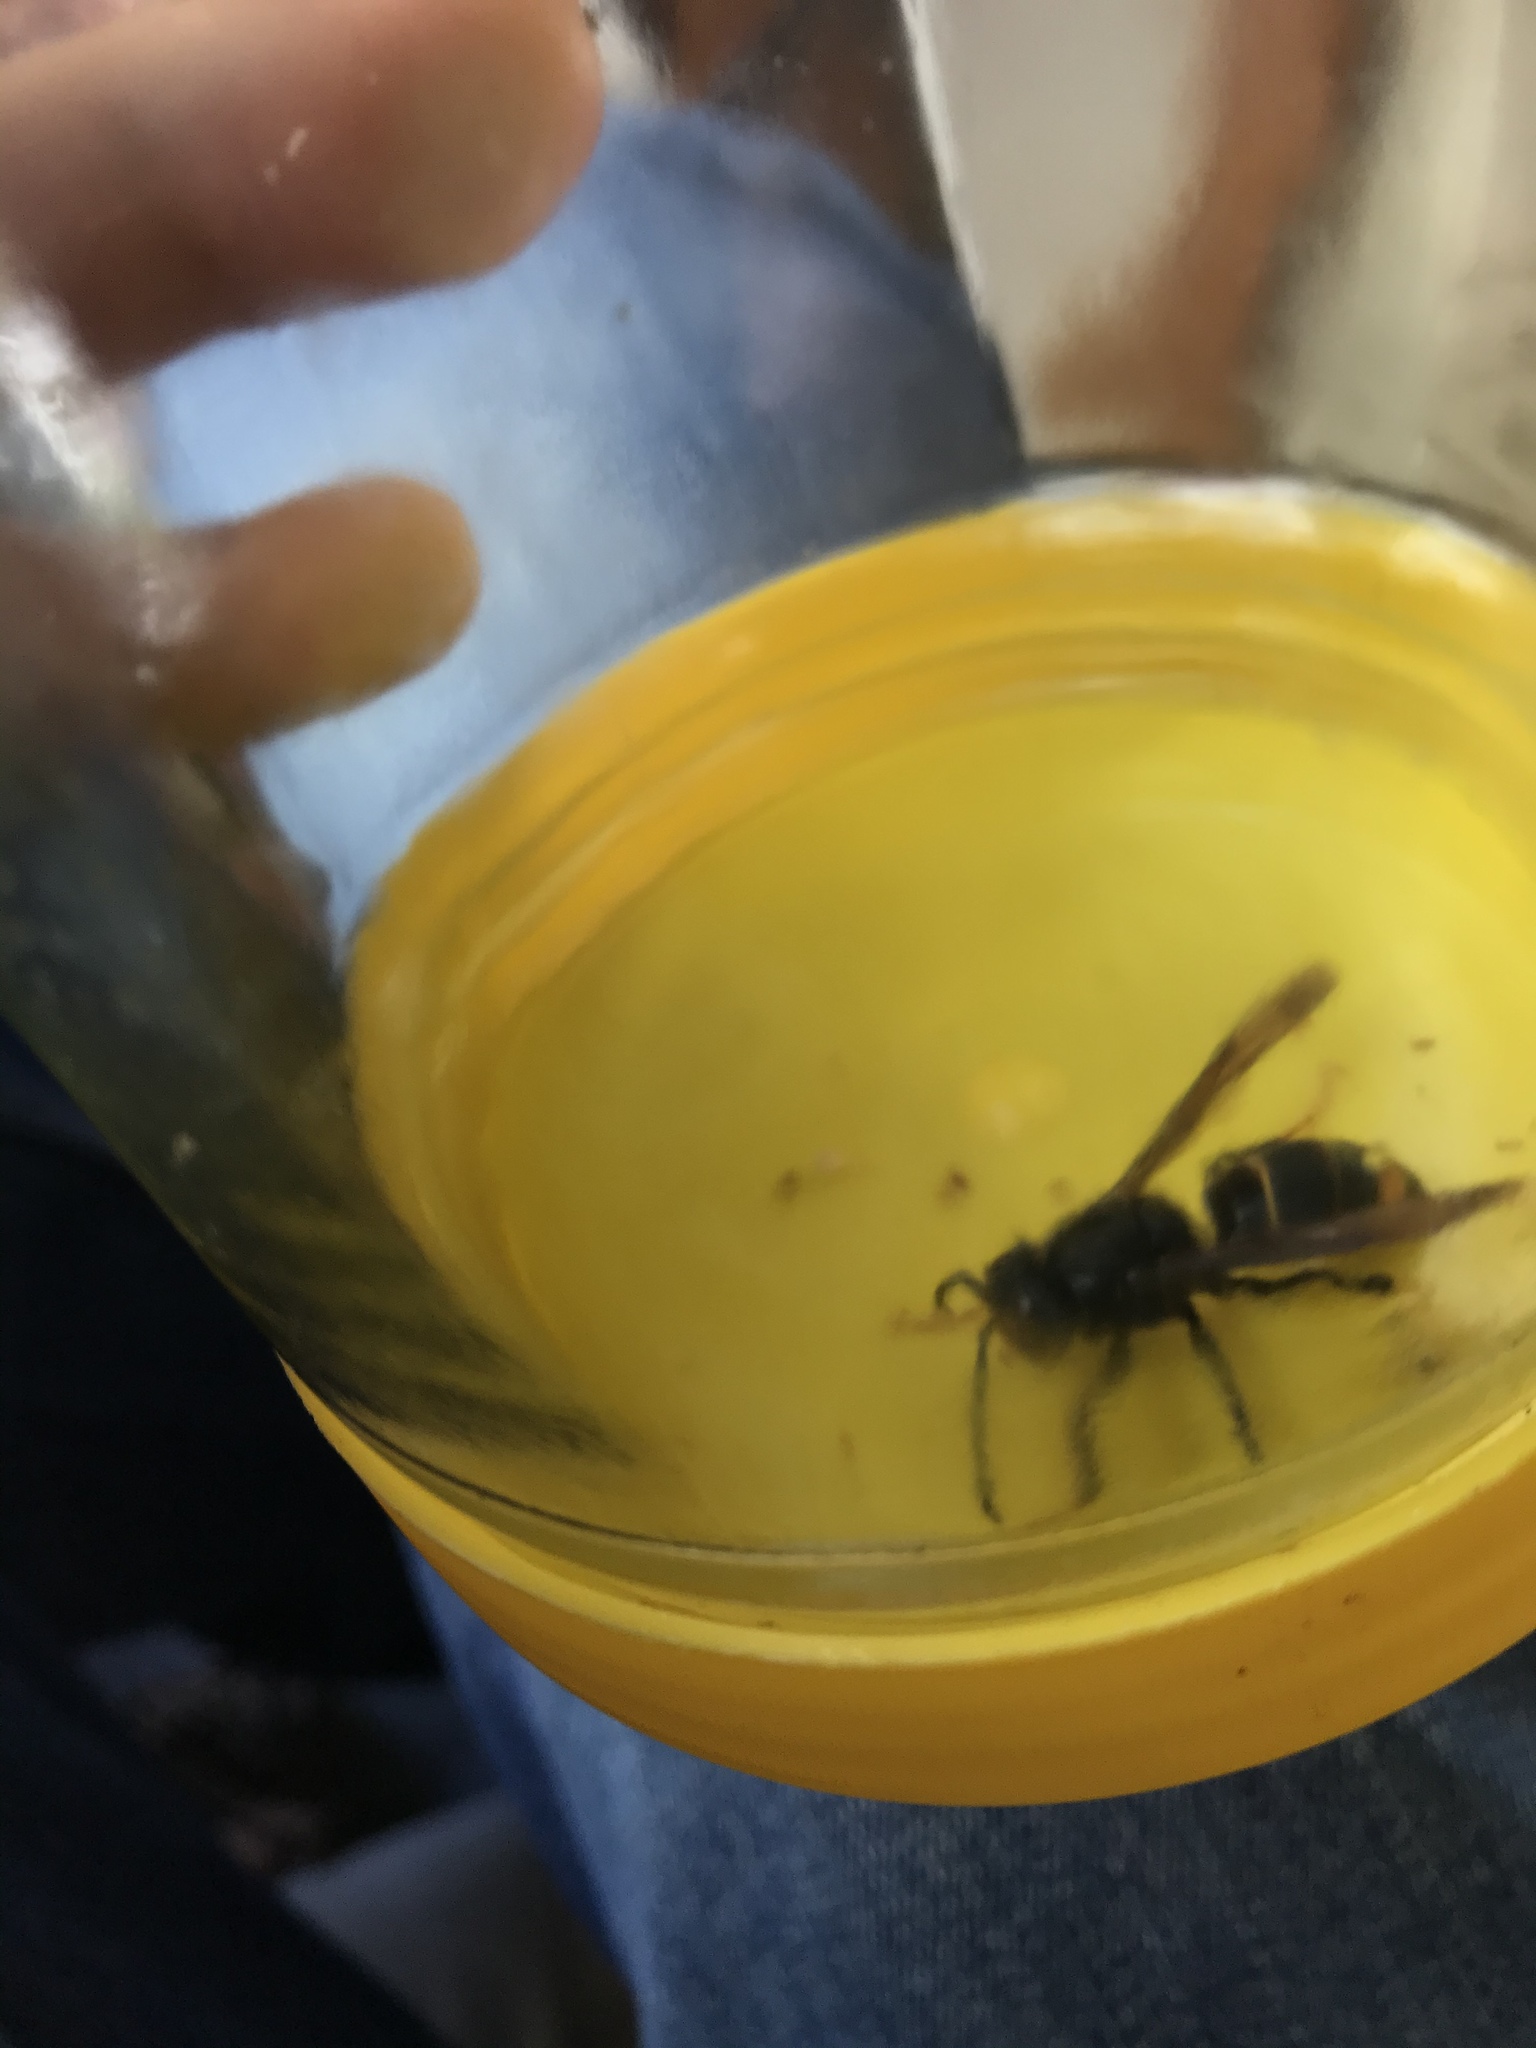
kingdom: Animalia
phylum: Arthropoda
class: Insecta
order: Hymenoptera
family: Vespidae
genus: Vespa
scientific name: Vespa velutina
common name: Asian hornet
